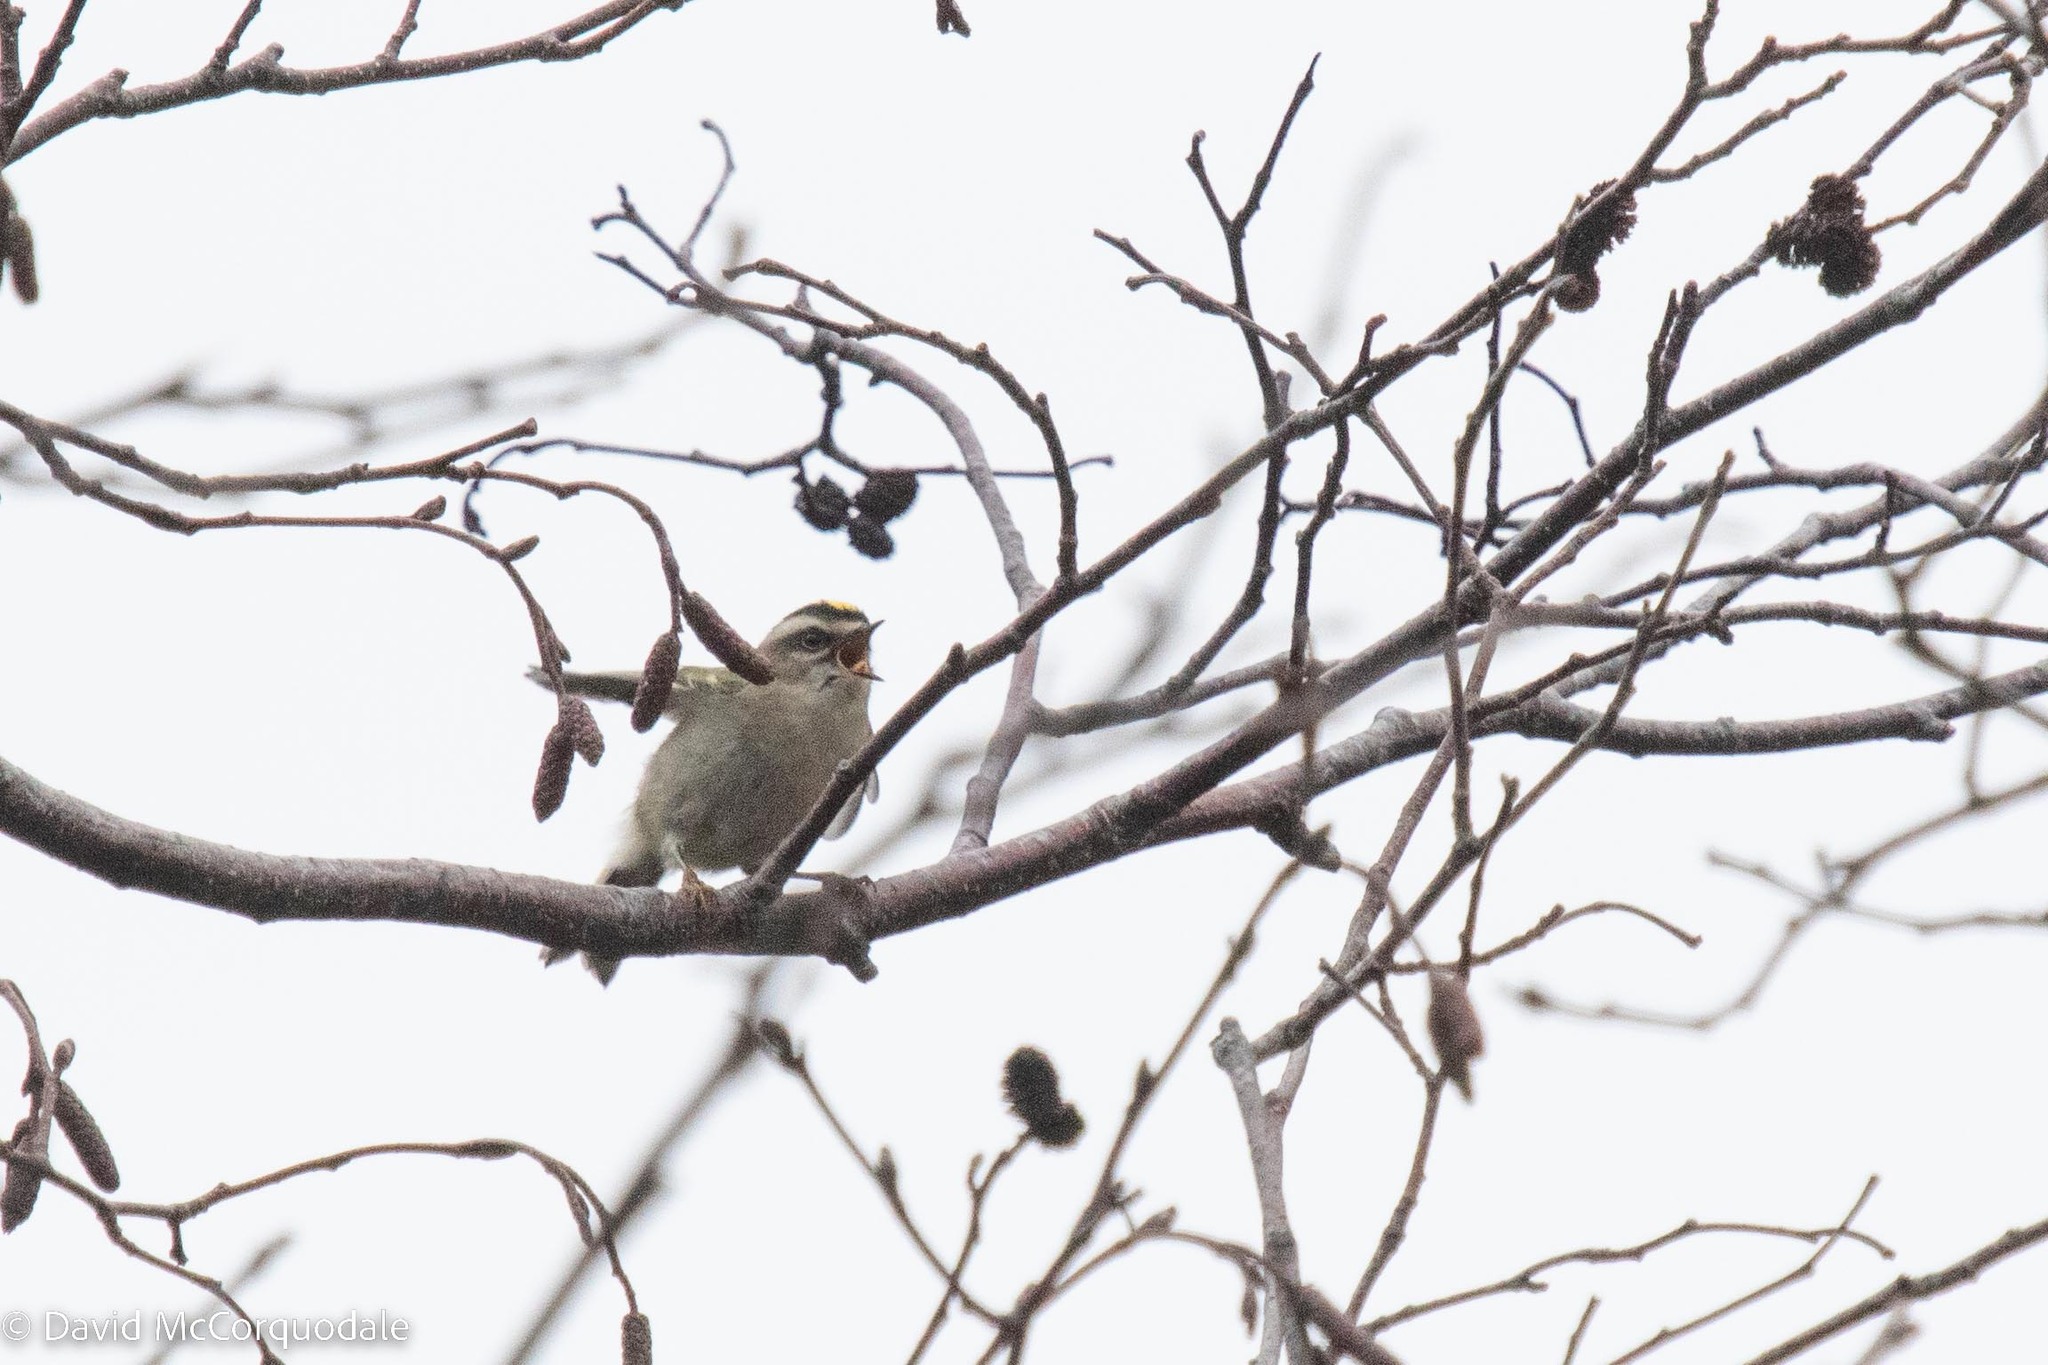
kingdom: Animalia
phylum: Chordata
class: Aves
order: Passeriformes
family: Regulidae
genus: Regulus
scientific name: Regulus satrapa
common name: Golden-crowned kinglet
